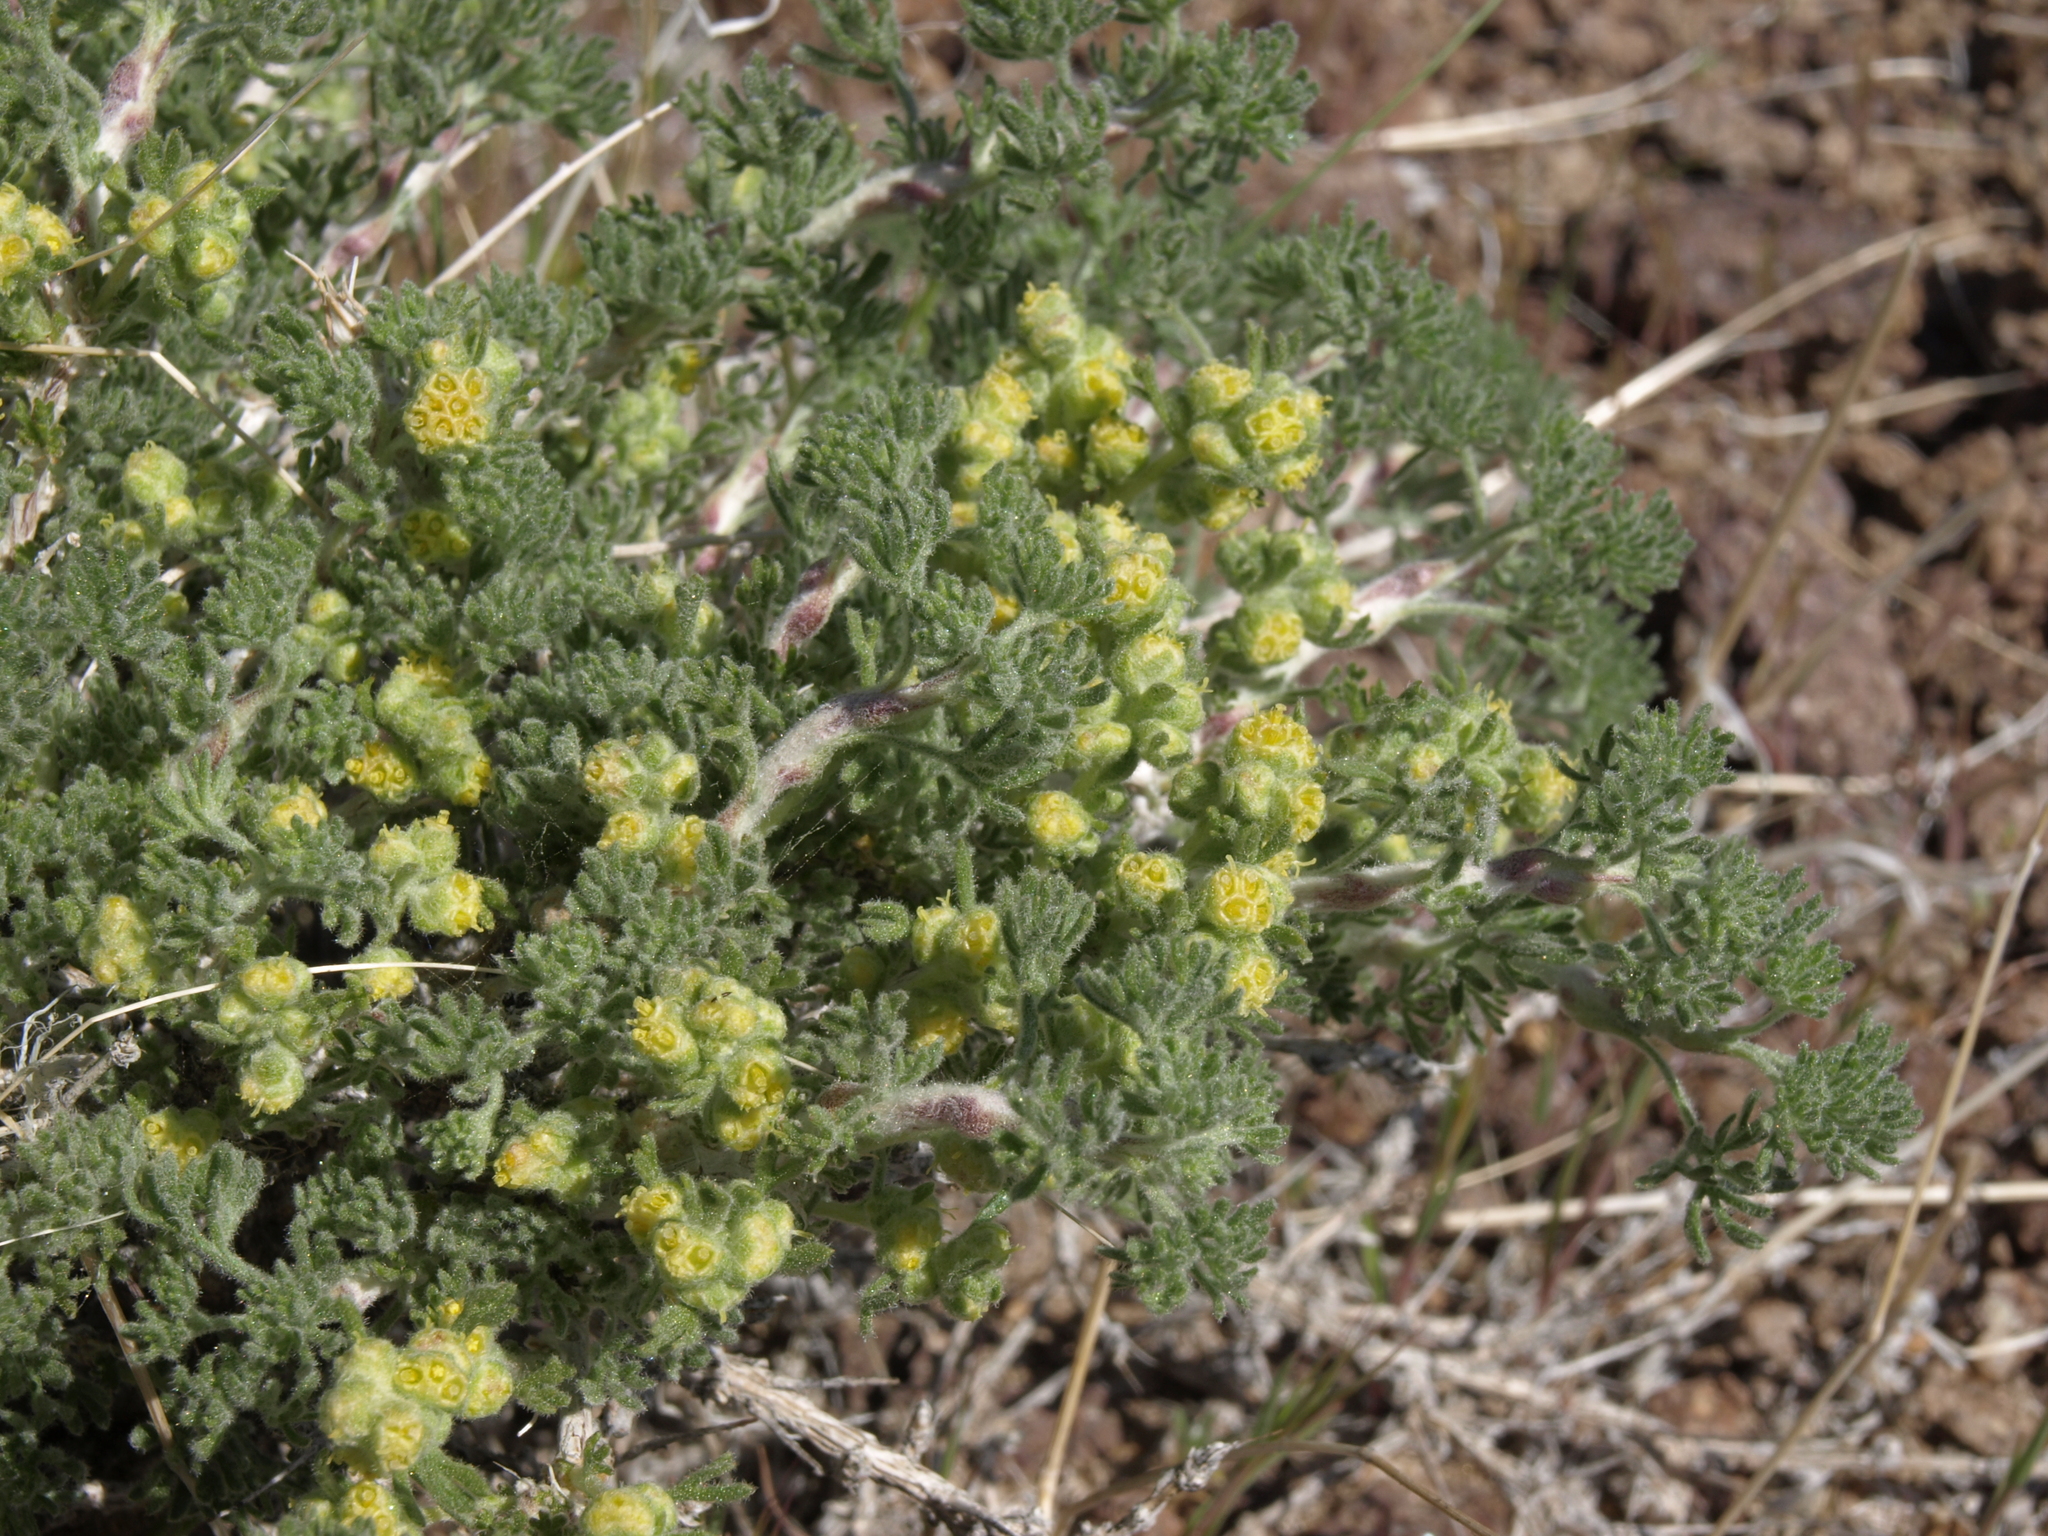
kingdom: Plantae
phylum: Tracheophyta
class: Magnoliopsida
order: Asterales
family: Asteraceae
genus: Artemisia
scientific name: Artemisia spinescens
